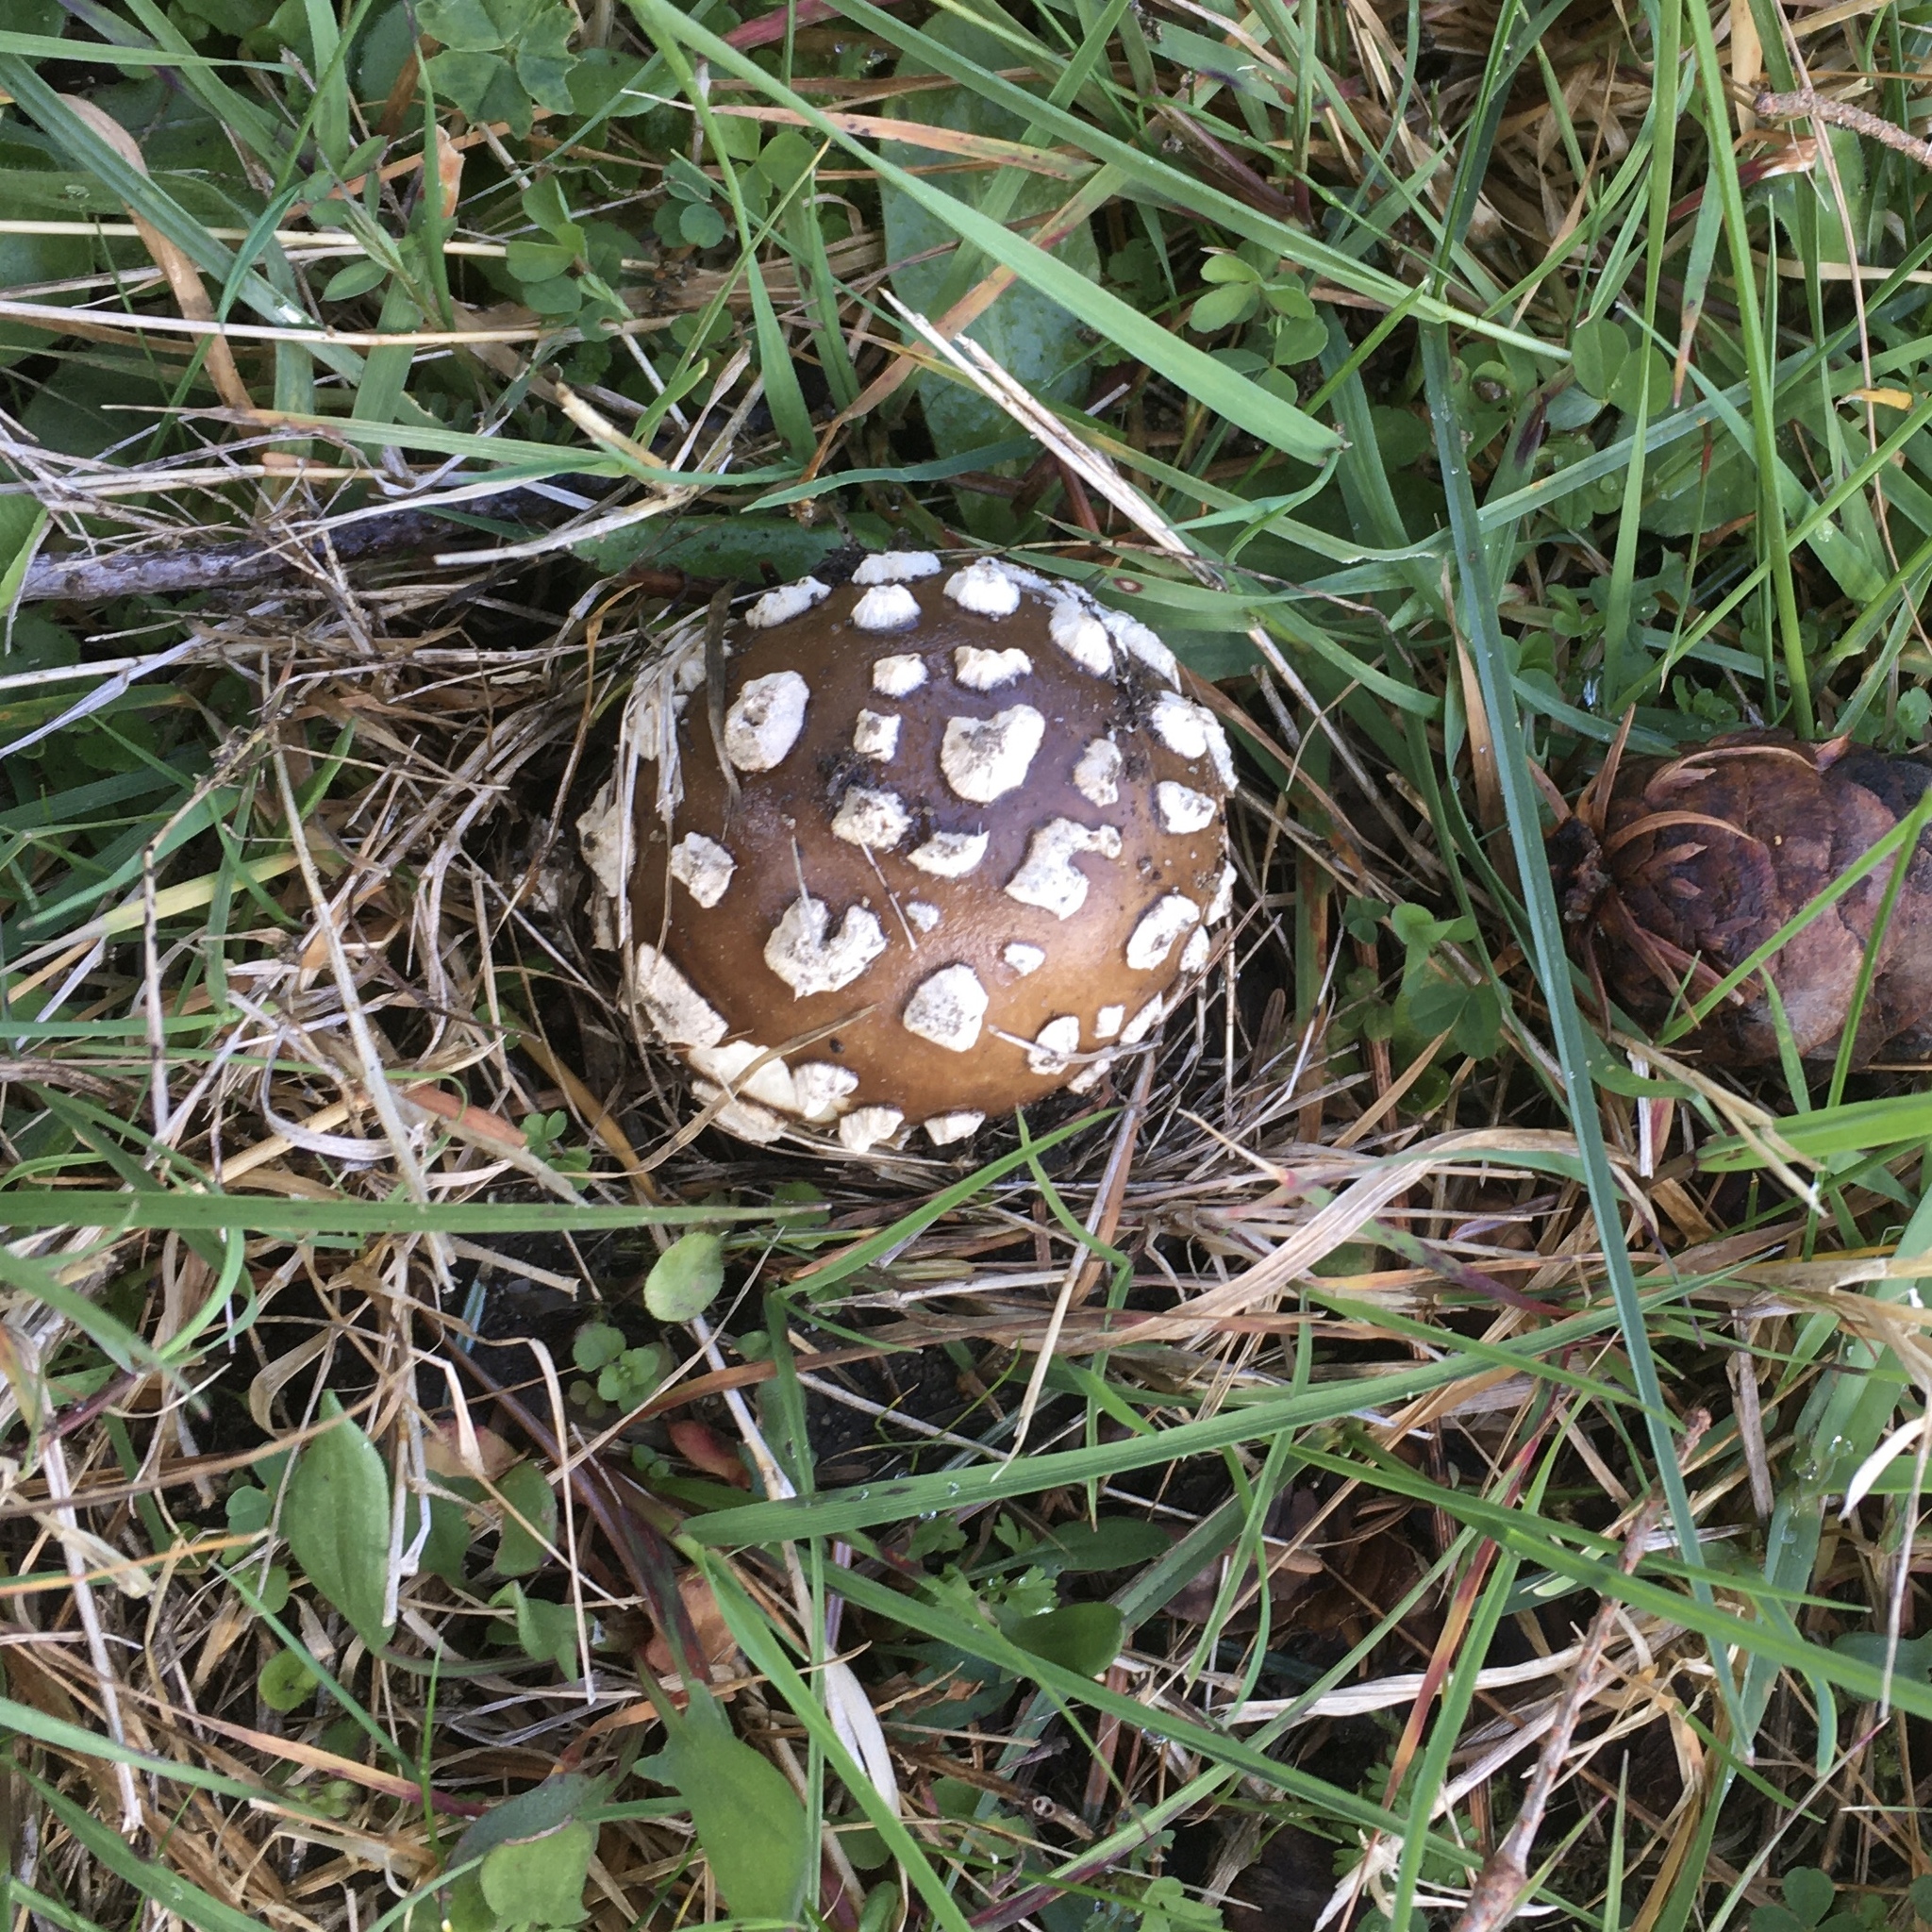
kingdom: Fungi
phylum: Basidiomycota
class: Agaricomycetes
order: Agaricales
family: Amanitaceae
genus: Amanita
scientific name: Amanita pantherina
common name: Panthercap
